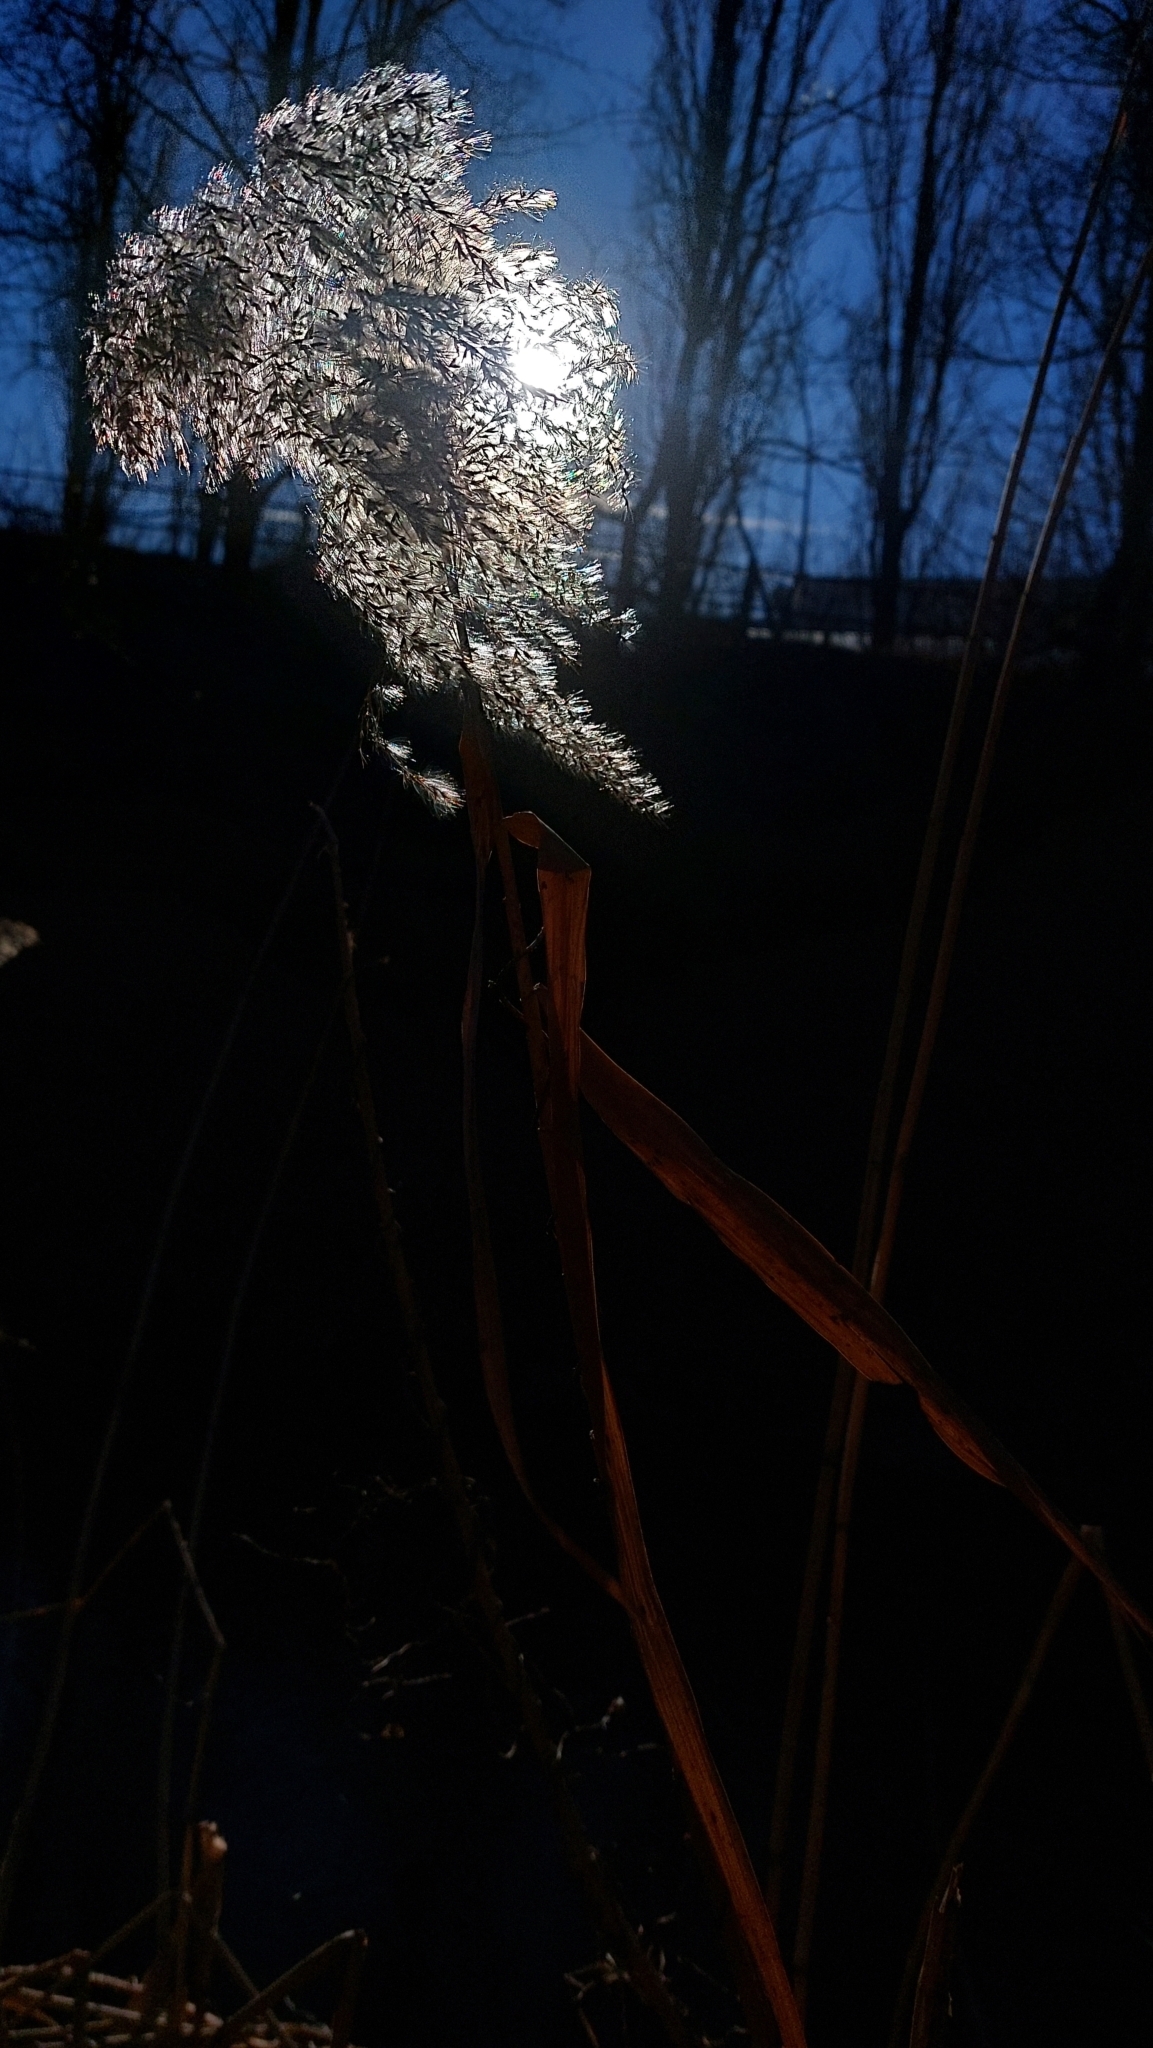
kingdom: Plantae
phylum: Tracheophyta
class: Liliopsida
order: Poales
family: Poaceae
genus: Phragmites
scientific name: Phragmites australis
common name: Common reed
